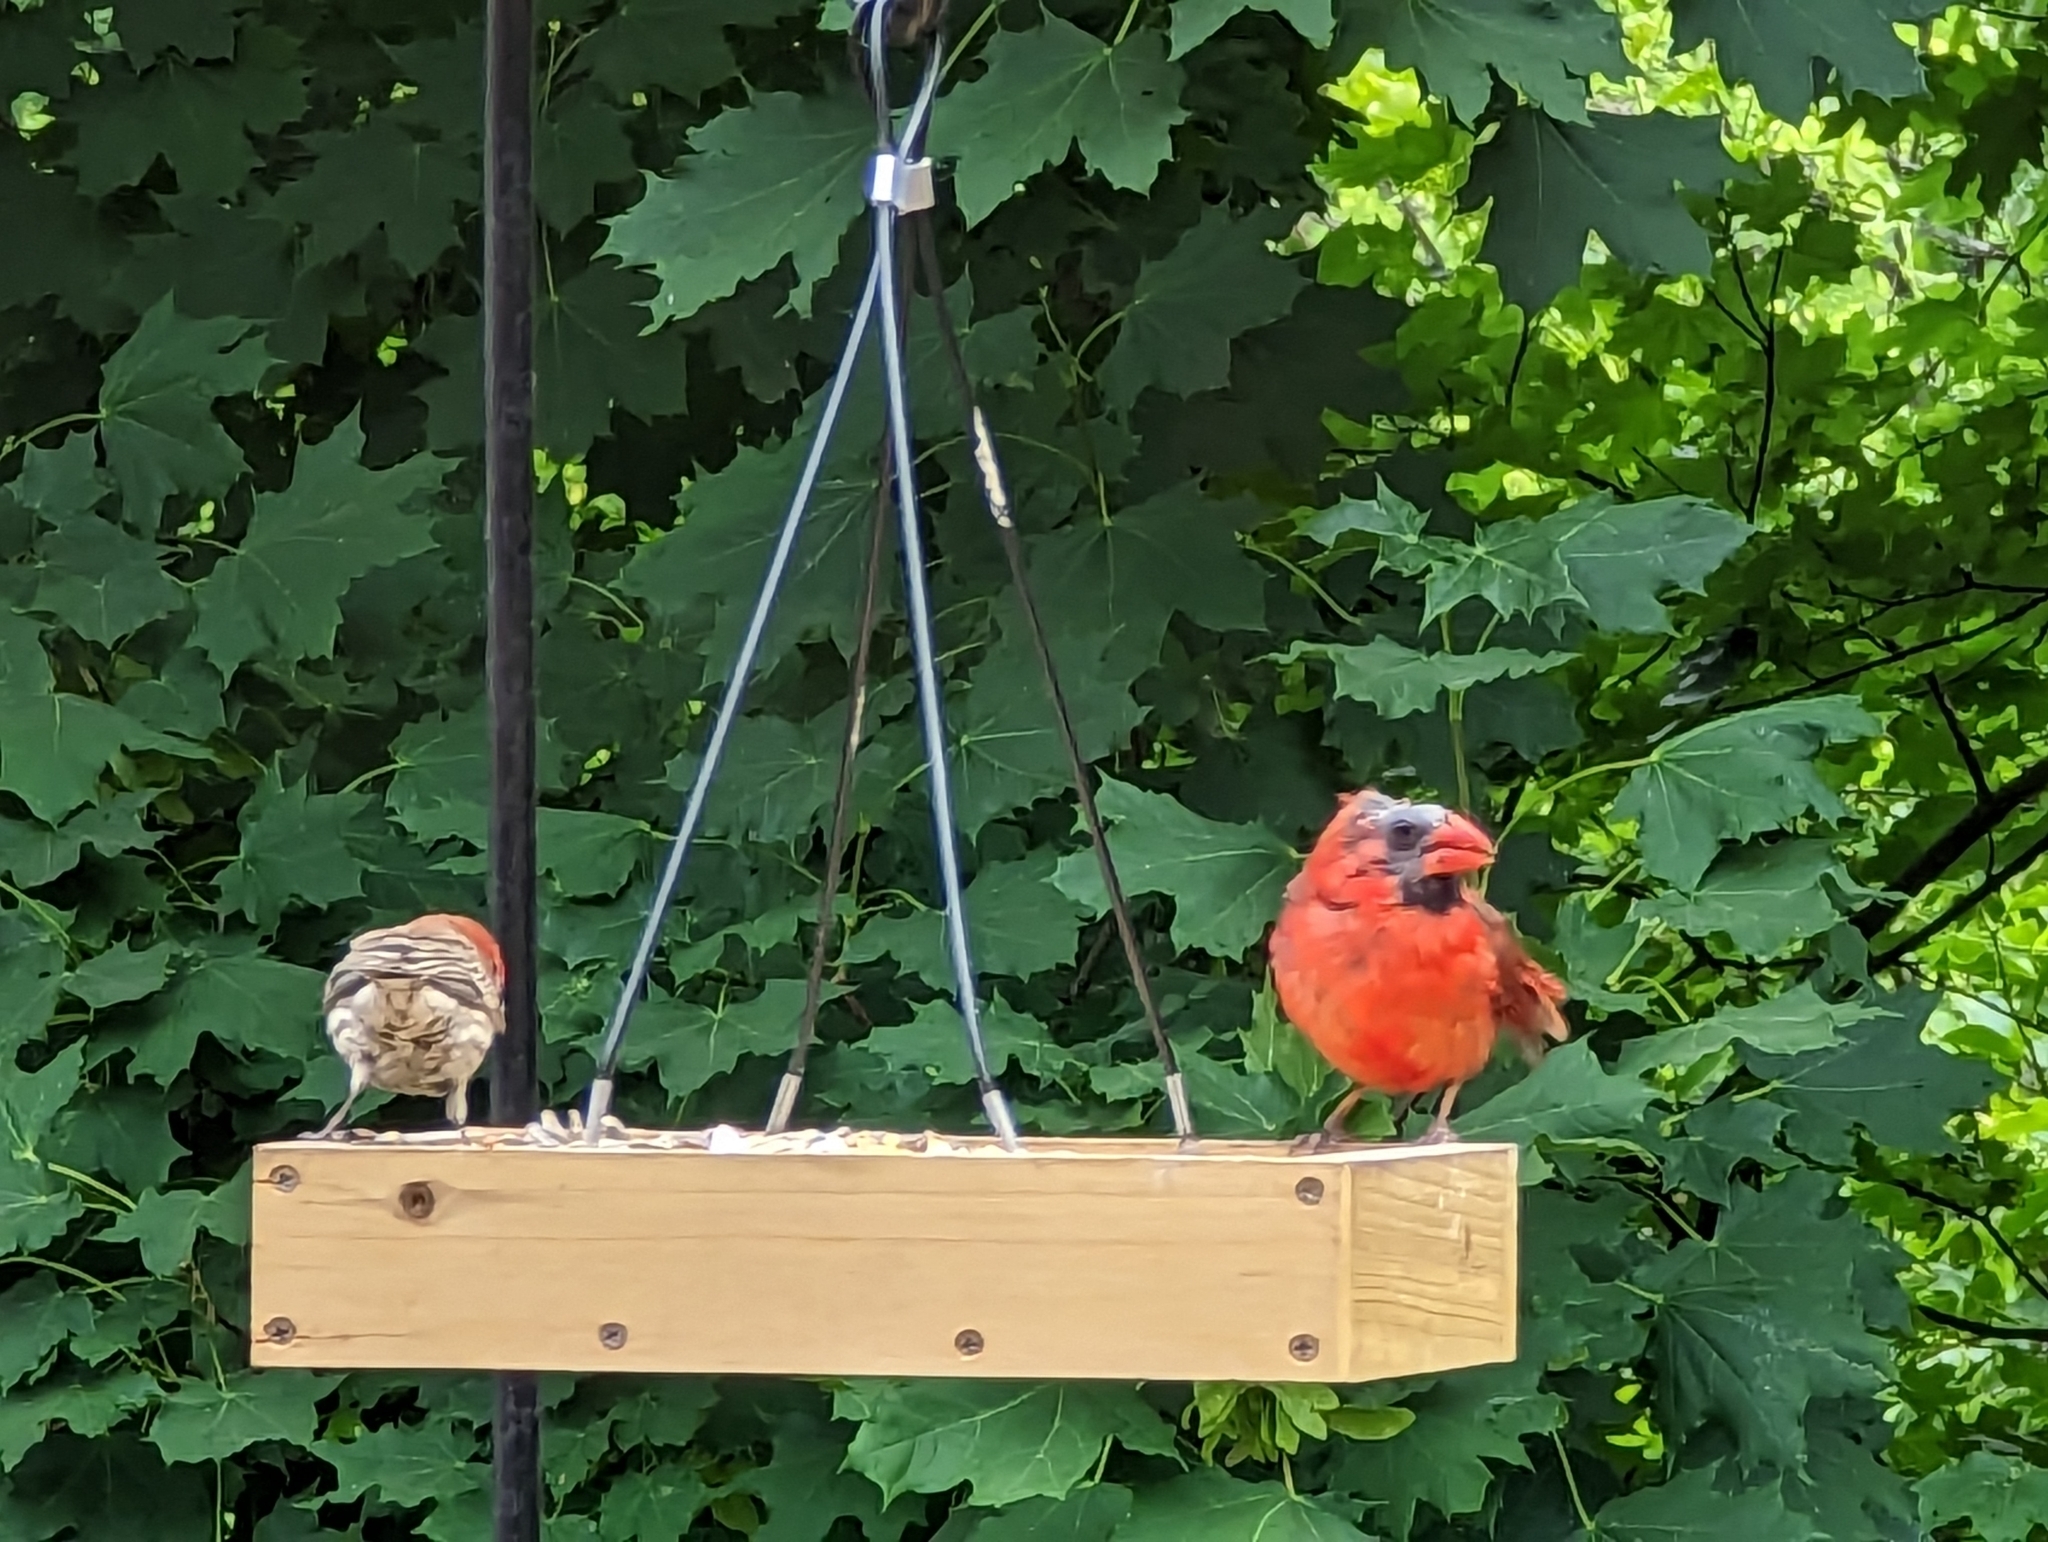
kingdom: Animalia
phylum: Chordata
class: Aves
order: Passeriformes
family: Cardinalidae
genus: Cardinalis
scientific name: Cardinalis cardinalis
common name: Northern cardinal
